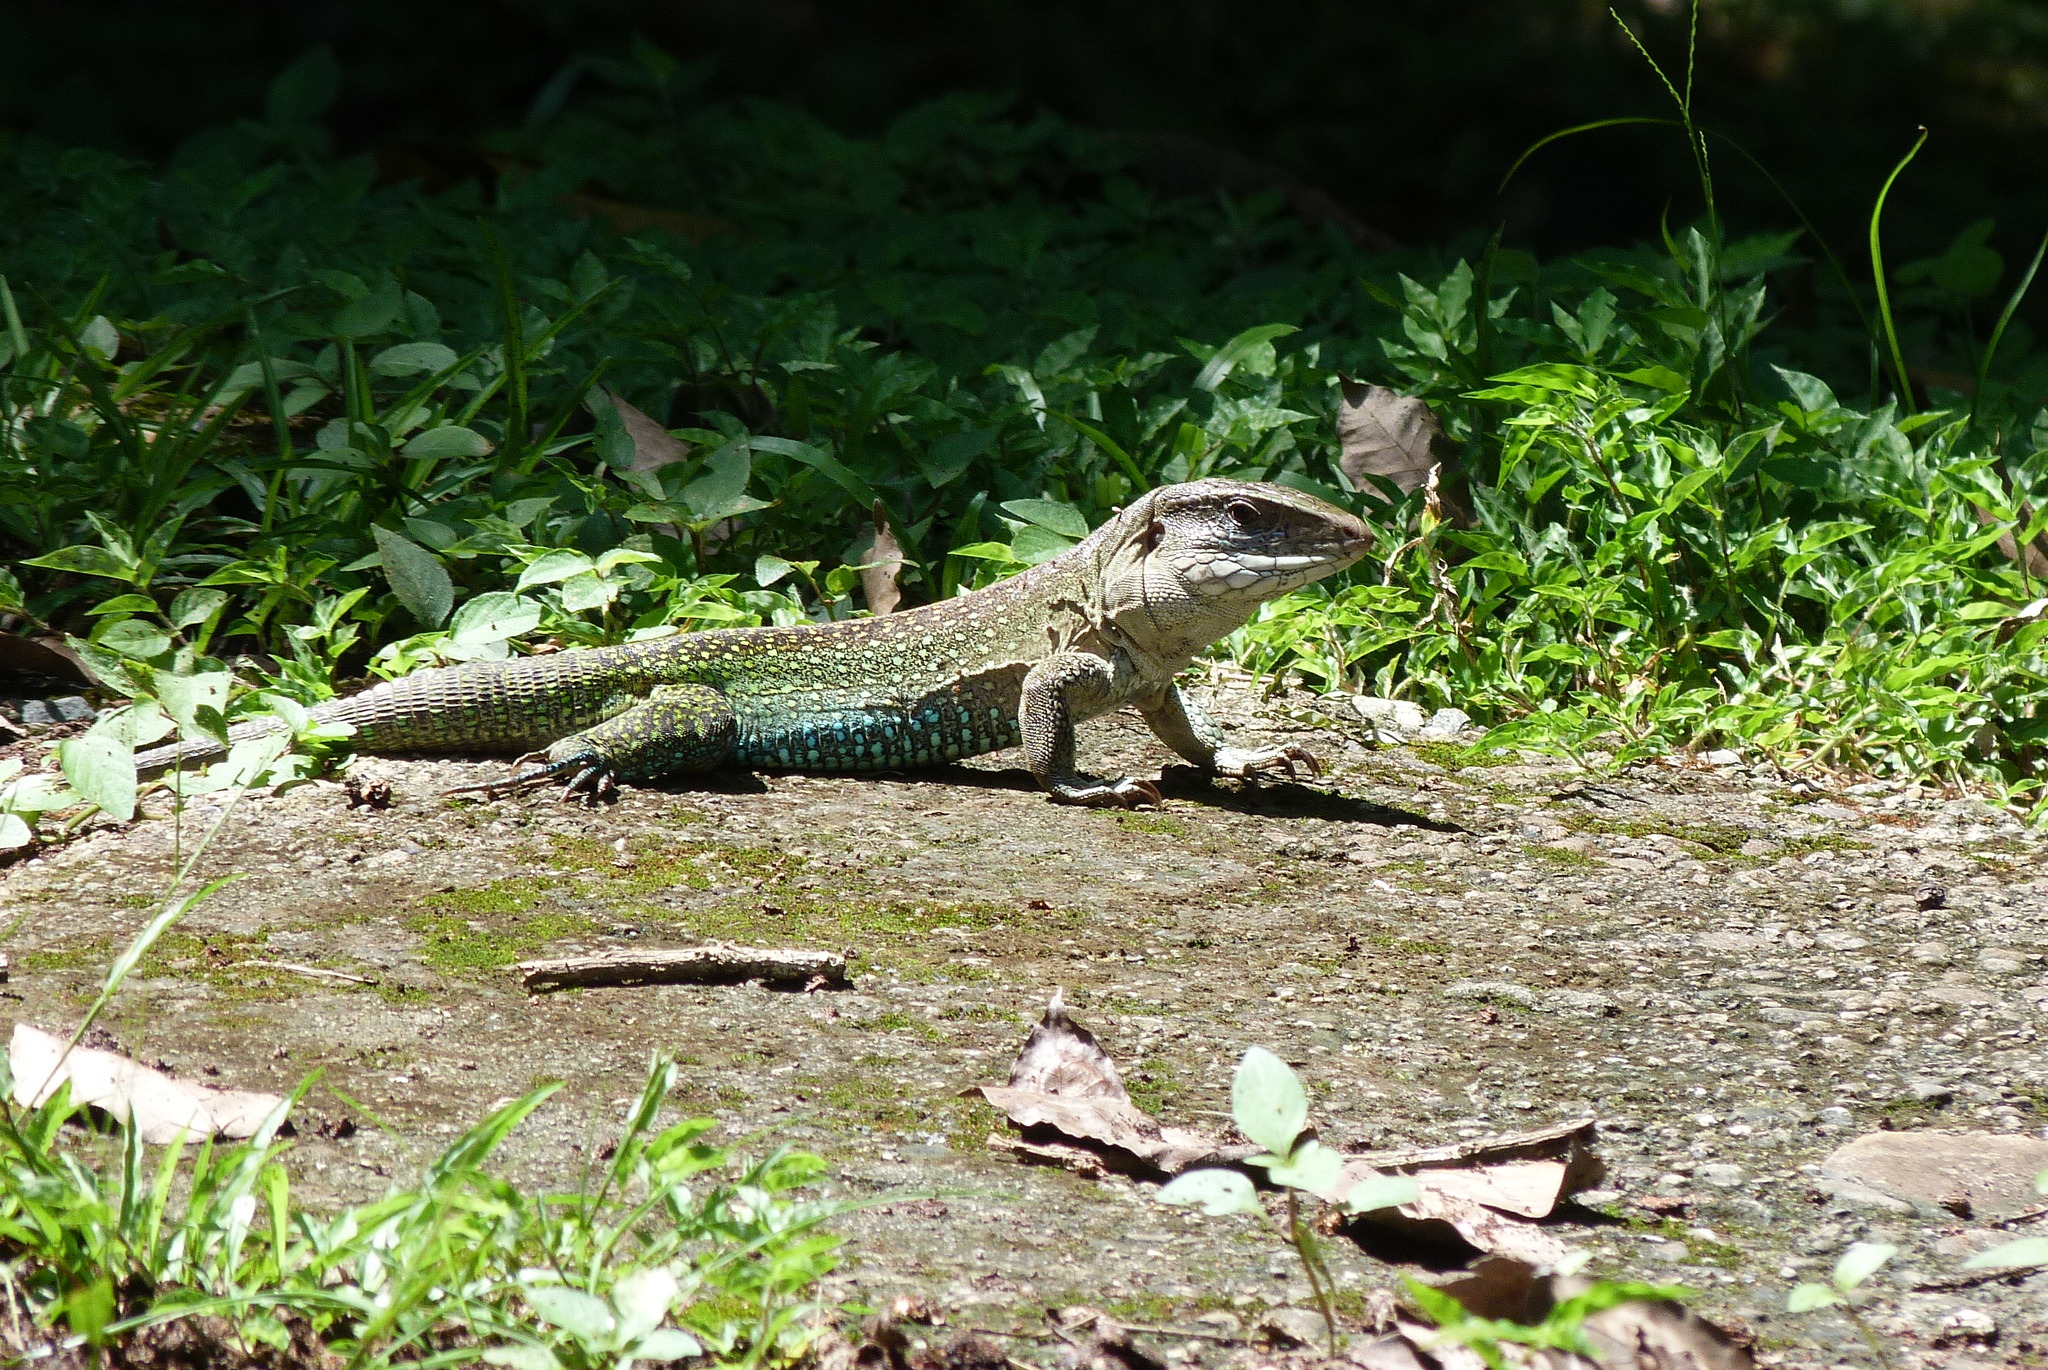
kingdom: Animalia
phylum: Chordata
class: Squamata
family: Teiidae
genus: Ameiva
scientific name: Ameiva praesignis
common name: Giant ameiva
